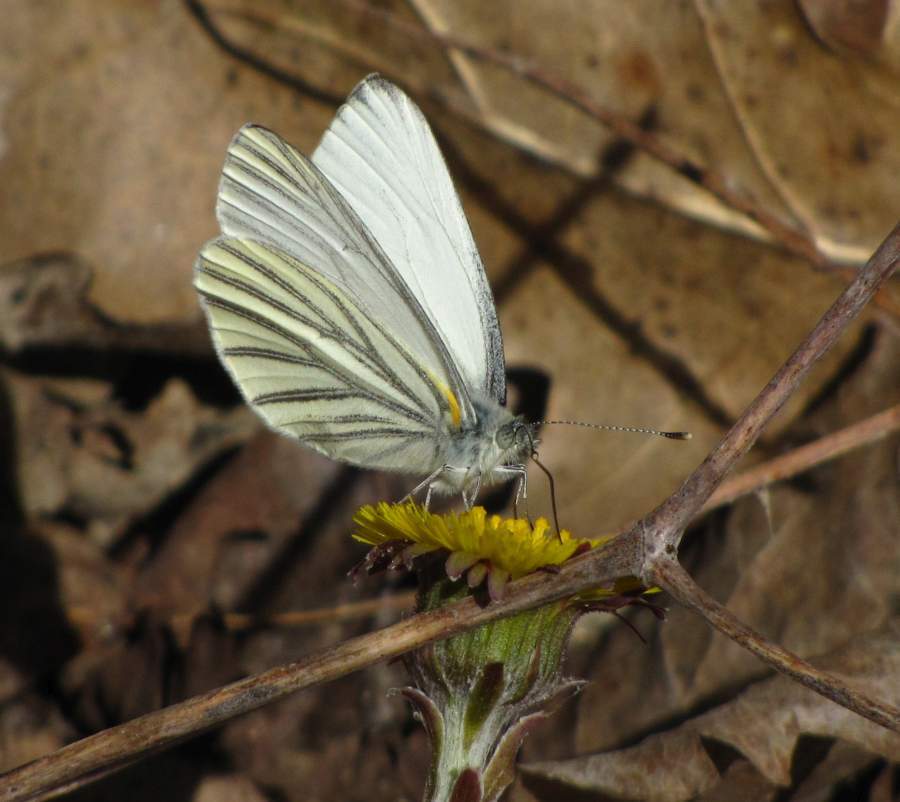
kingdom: Animalia
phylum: Arthropoda
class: Insecta
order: Lepidoptera
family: Pieridae
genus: Pieris
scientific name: Pieris oleracea
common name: Mustard white
